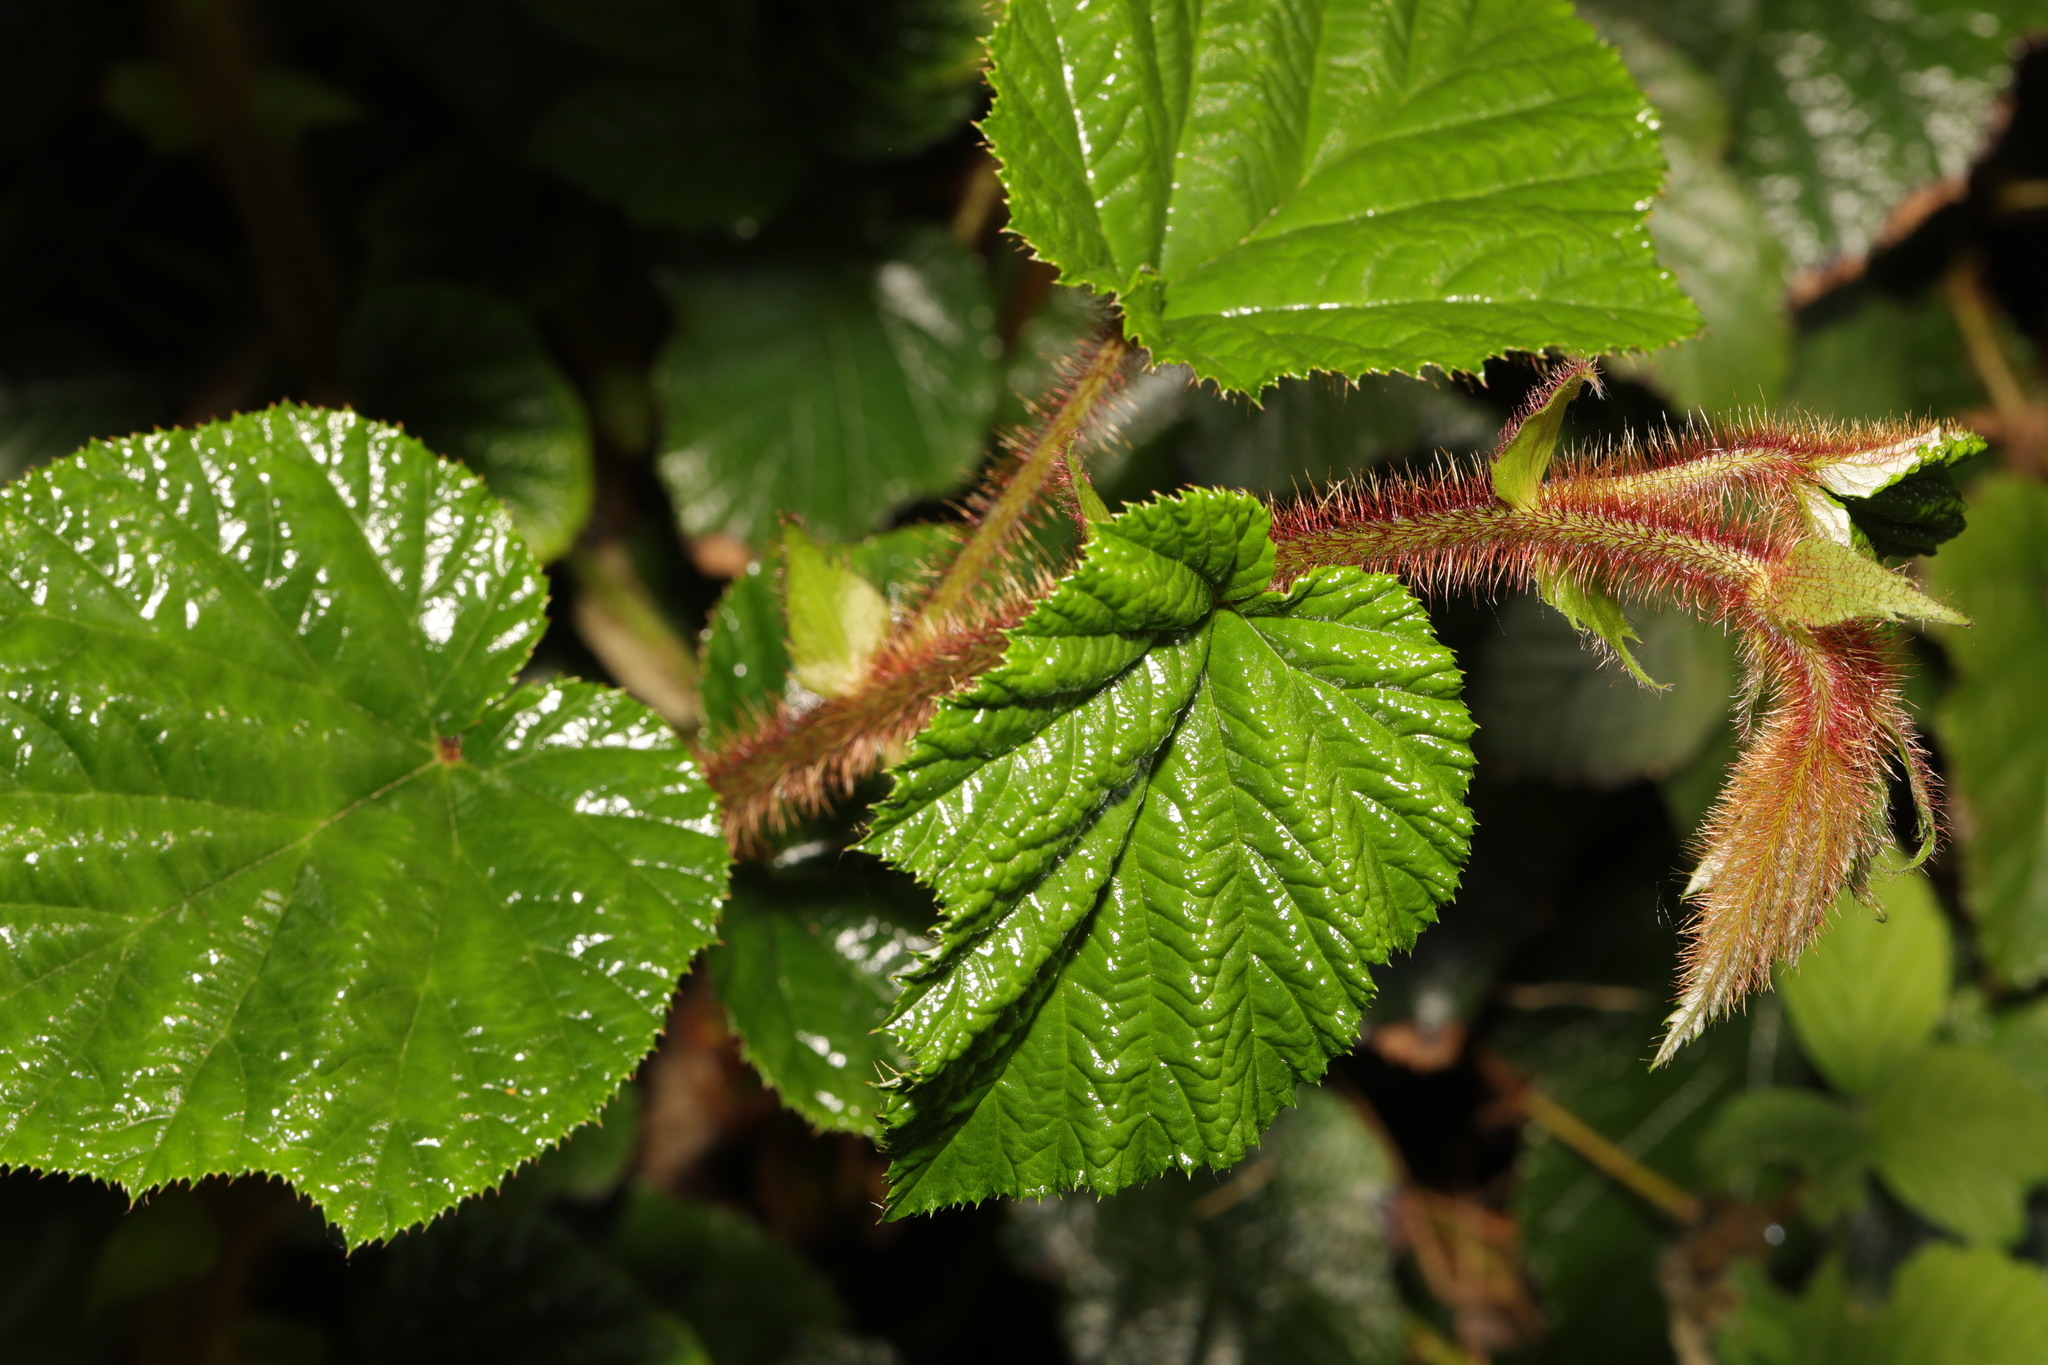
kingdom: Plantae
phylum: Tracheophyta
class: Magnoliopsida
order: Rosales
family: Rosaceae
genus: Rubus
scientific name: Rubus tricolor
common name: Chinese bramble
